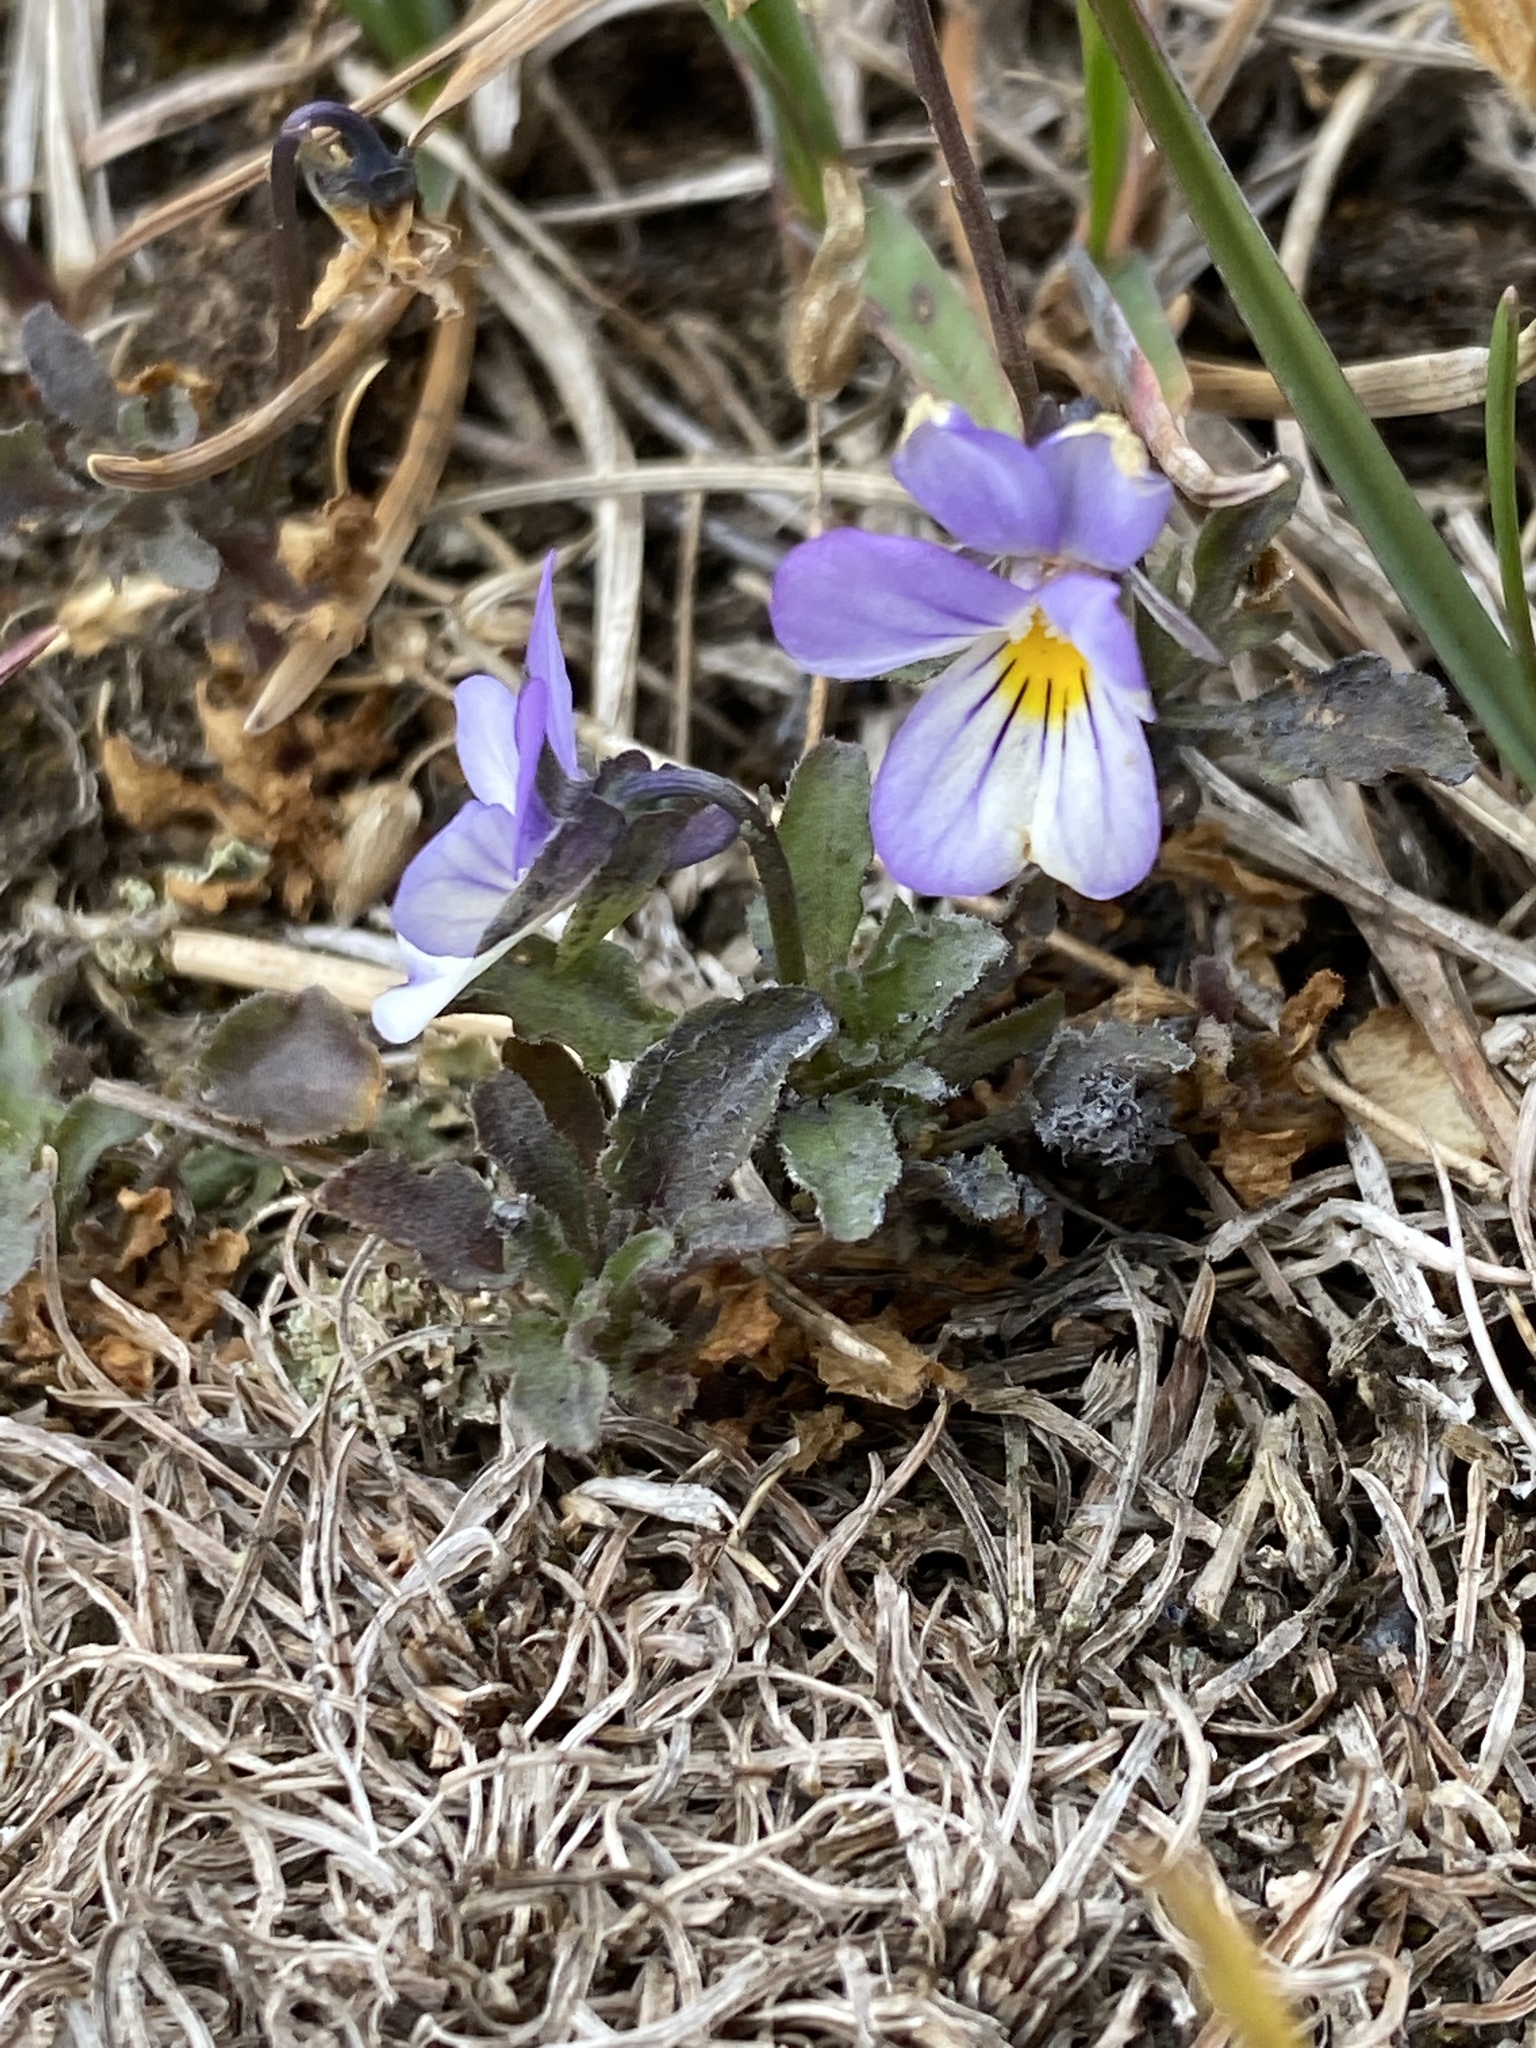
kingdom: Plantae
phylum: Tracheophyta
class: Magnoliopsida
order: Malpighiales
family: Violaceae
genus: Viola
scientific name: Viola tricolor
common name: Pansy
